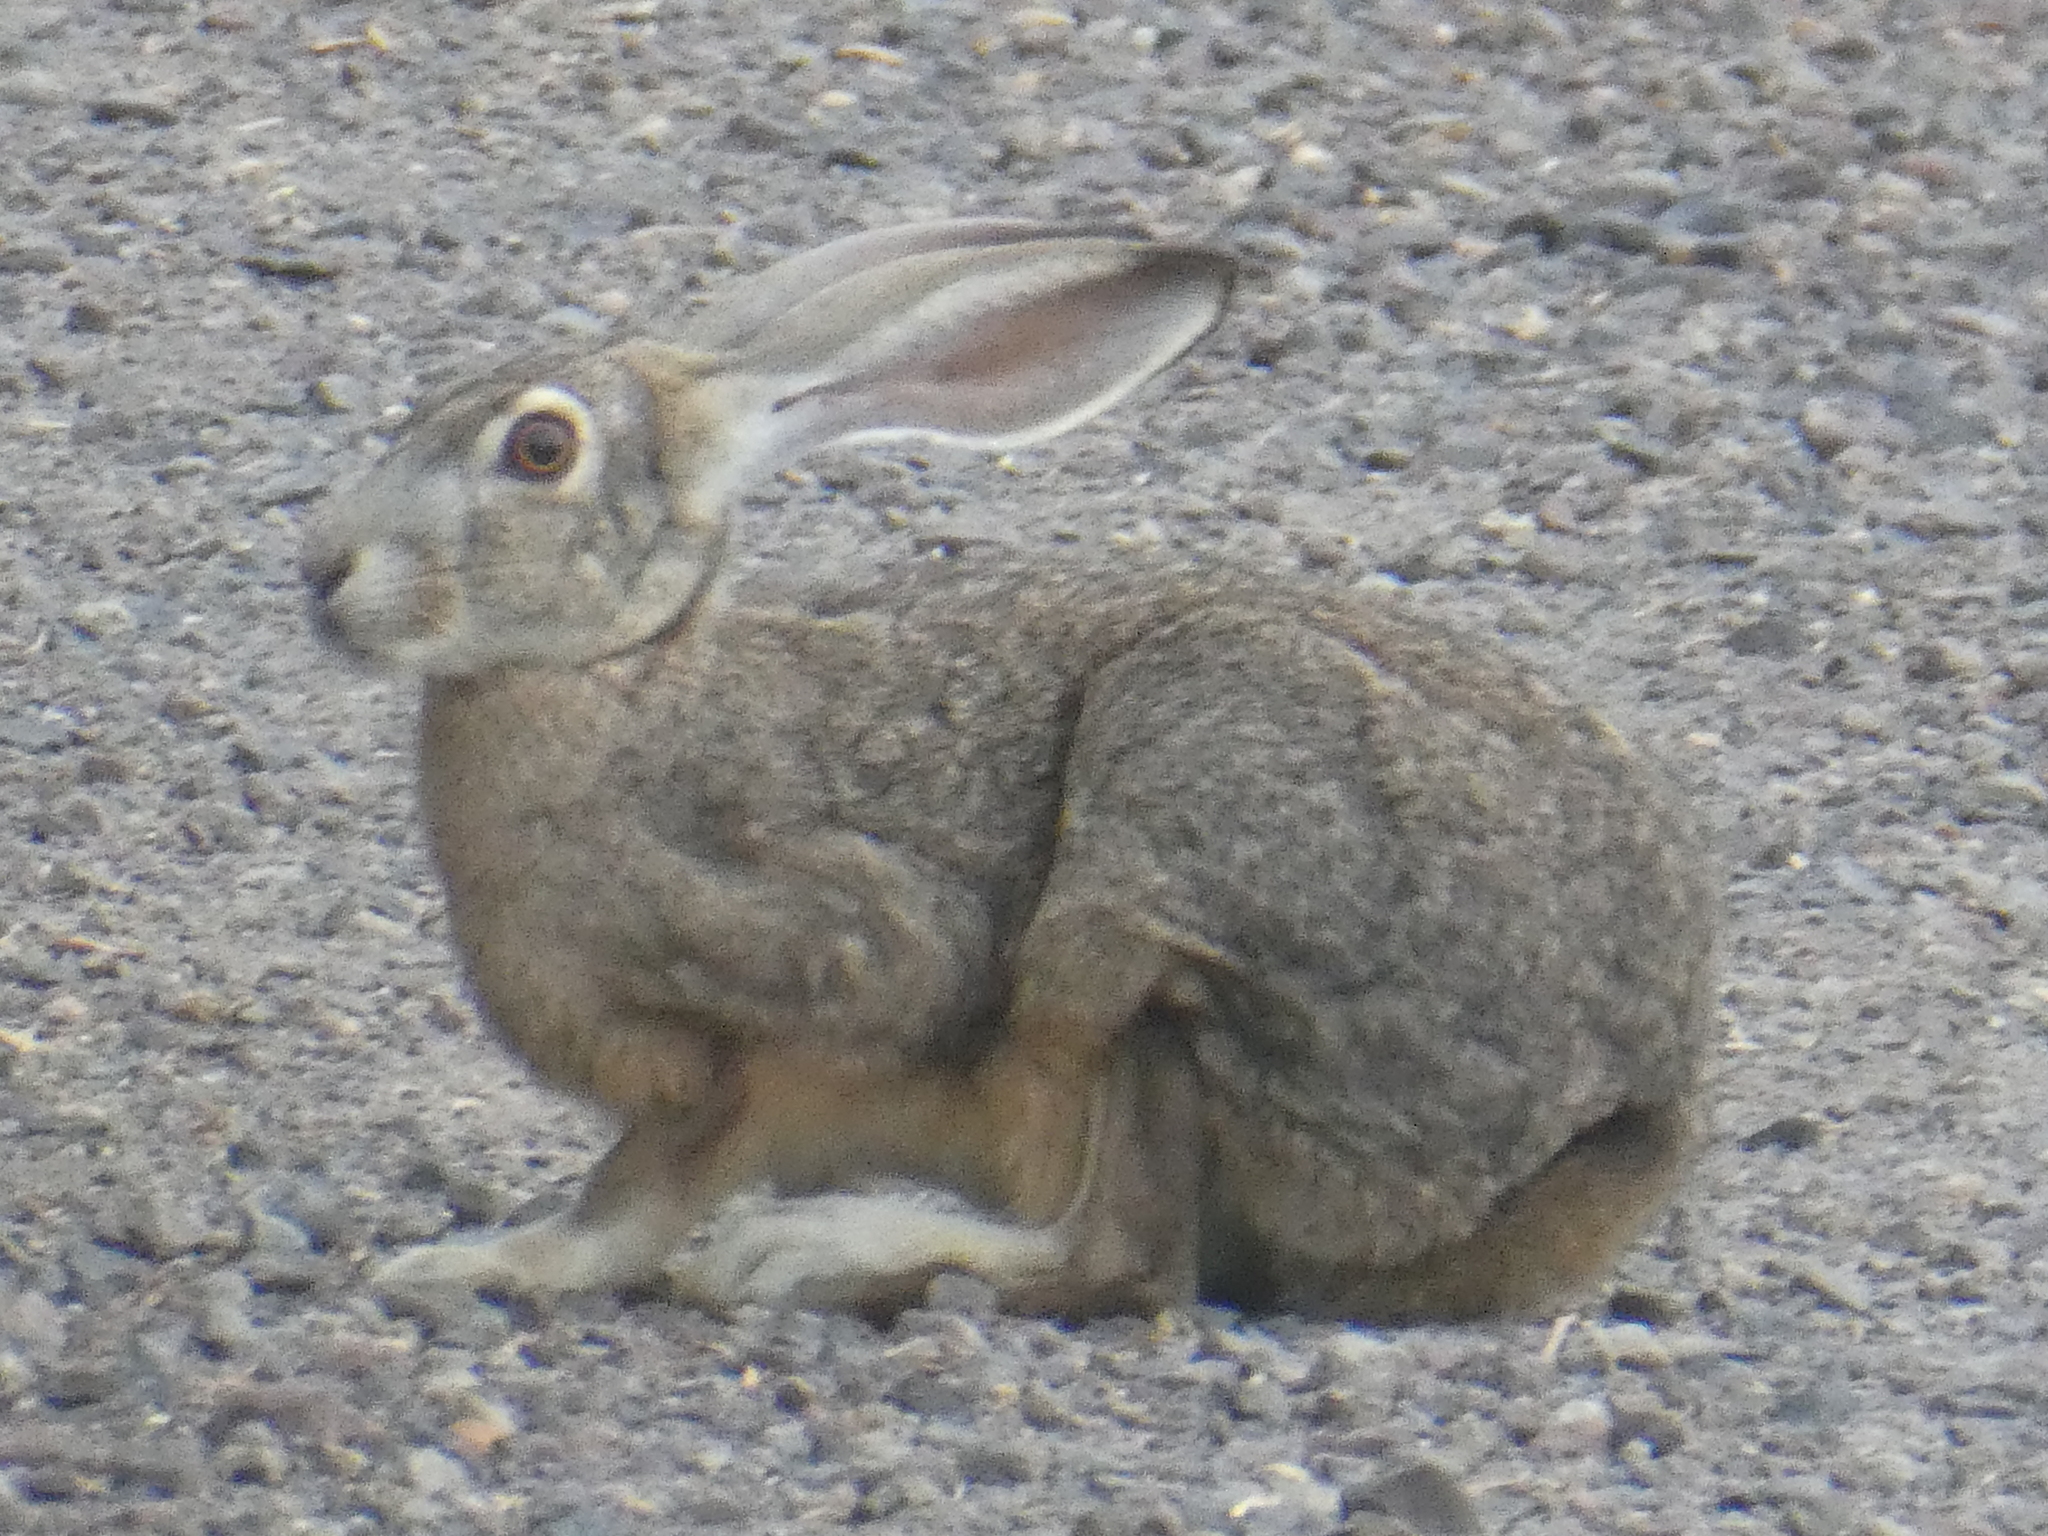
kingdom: Animalia
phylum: Chordata
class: Mammalia
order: Lagomorpha
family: Leporidae
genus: Lepus
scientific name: Lepus californicus
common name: Black-tailed jackrabbit
